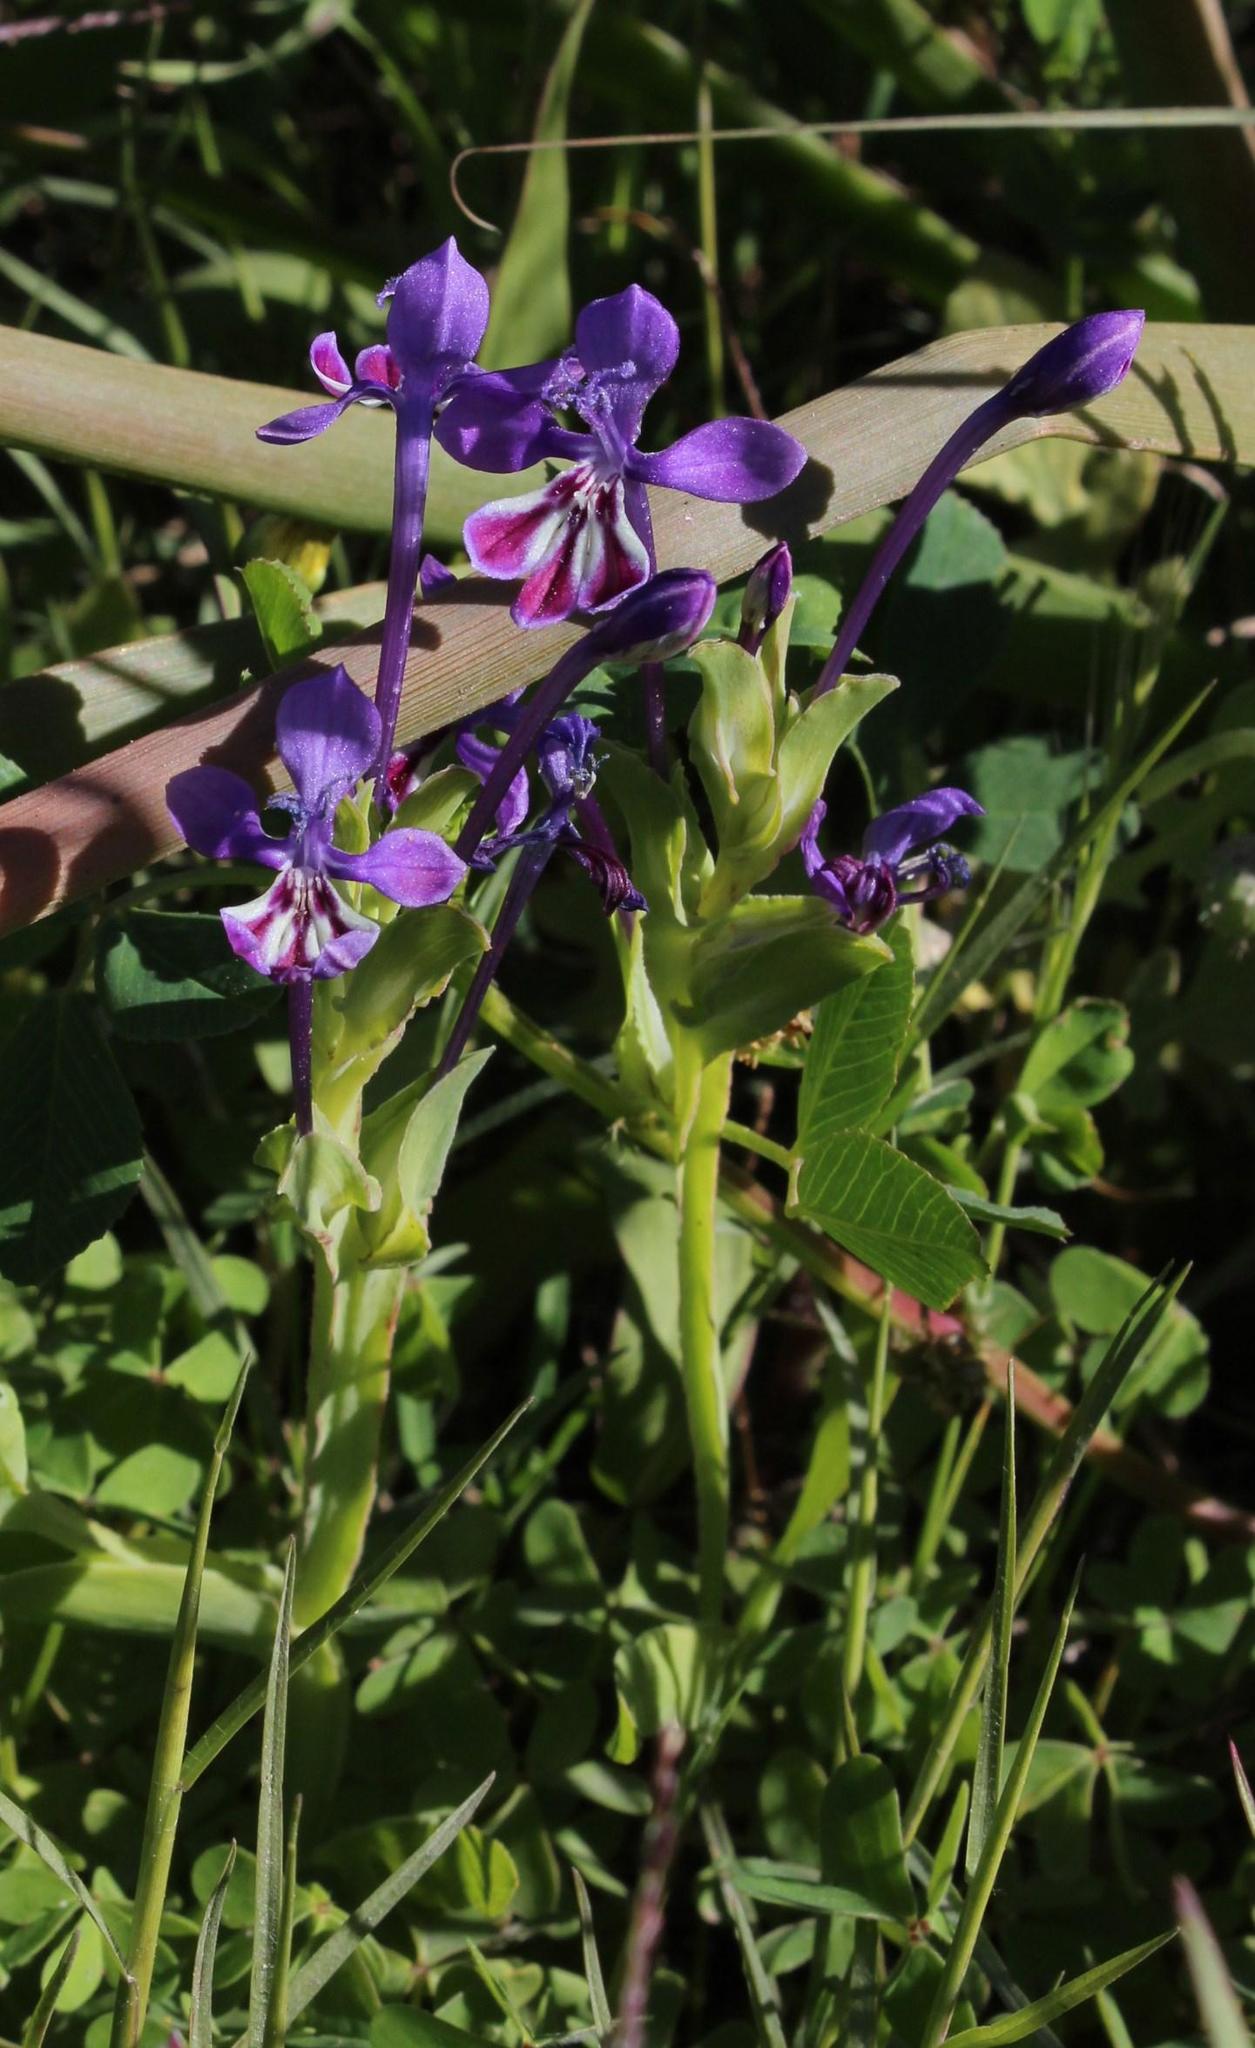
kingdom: Plantae
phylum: Tracheophyta
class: Liliopsida
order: Asparagales
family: Iridaceae
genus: Lapeirousia
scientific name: Lapeirousia jacquinii
